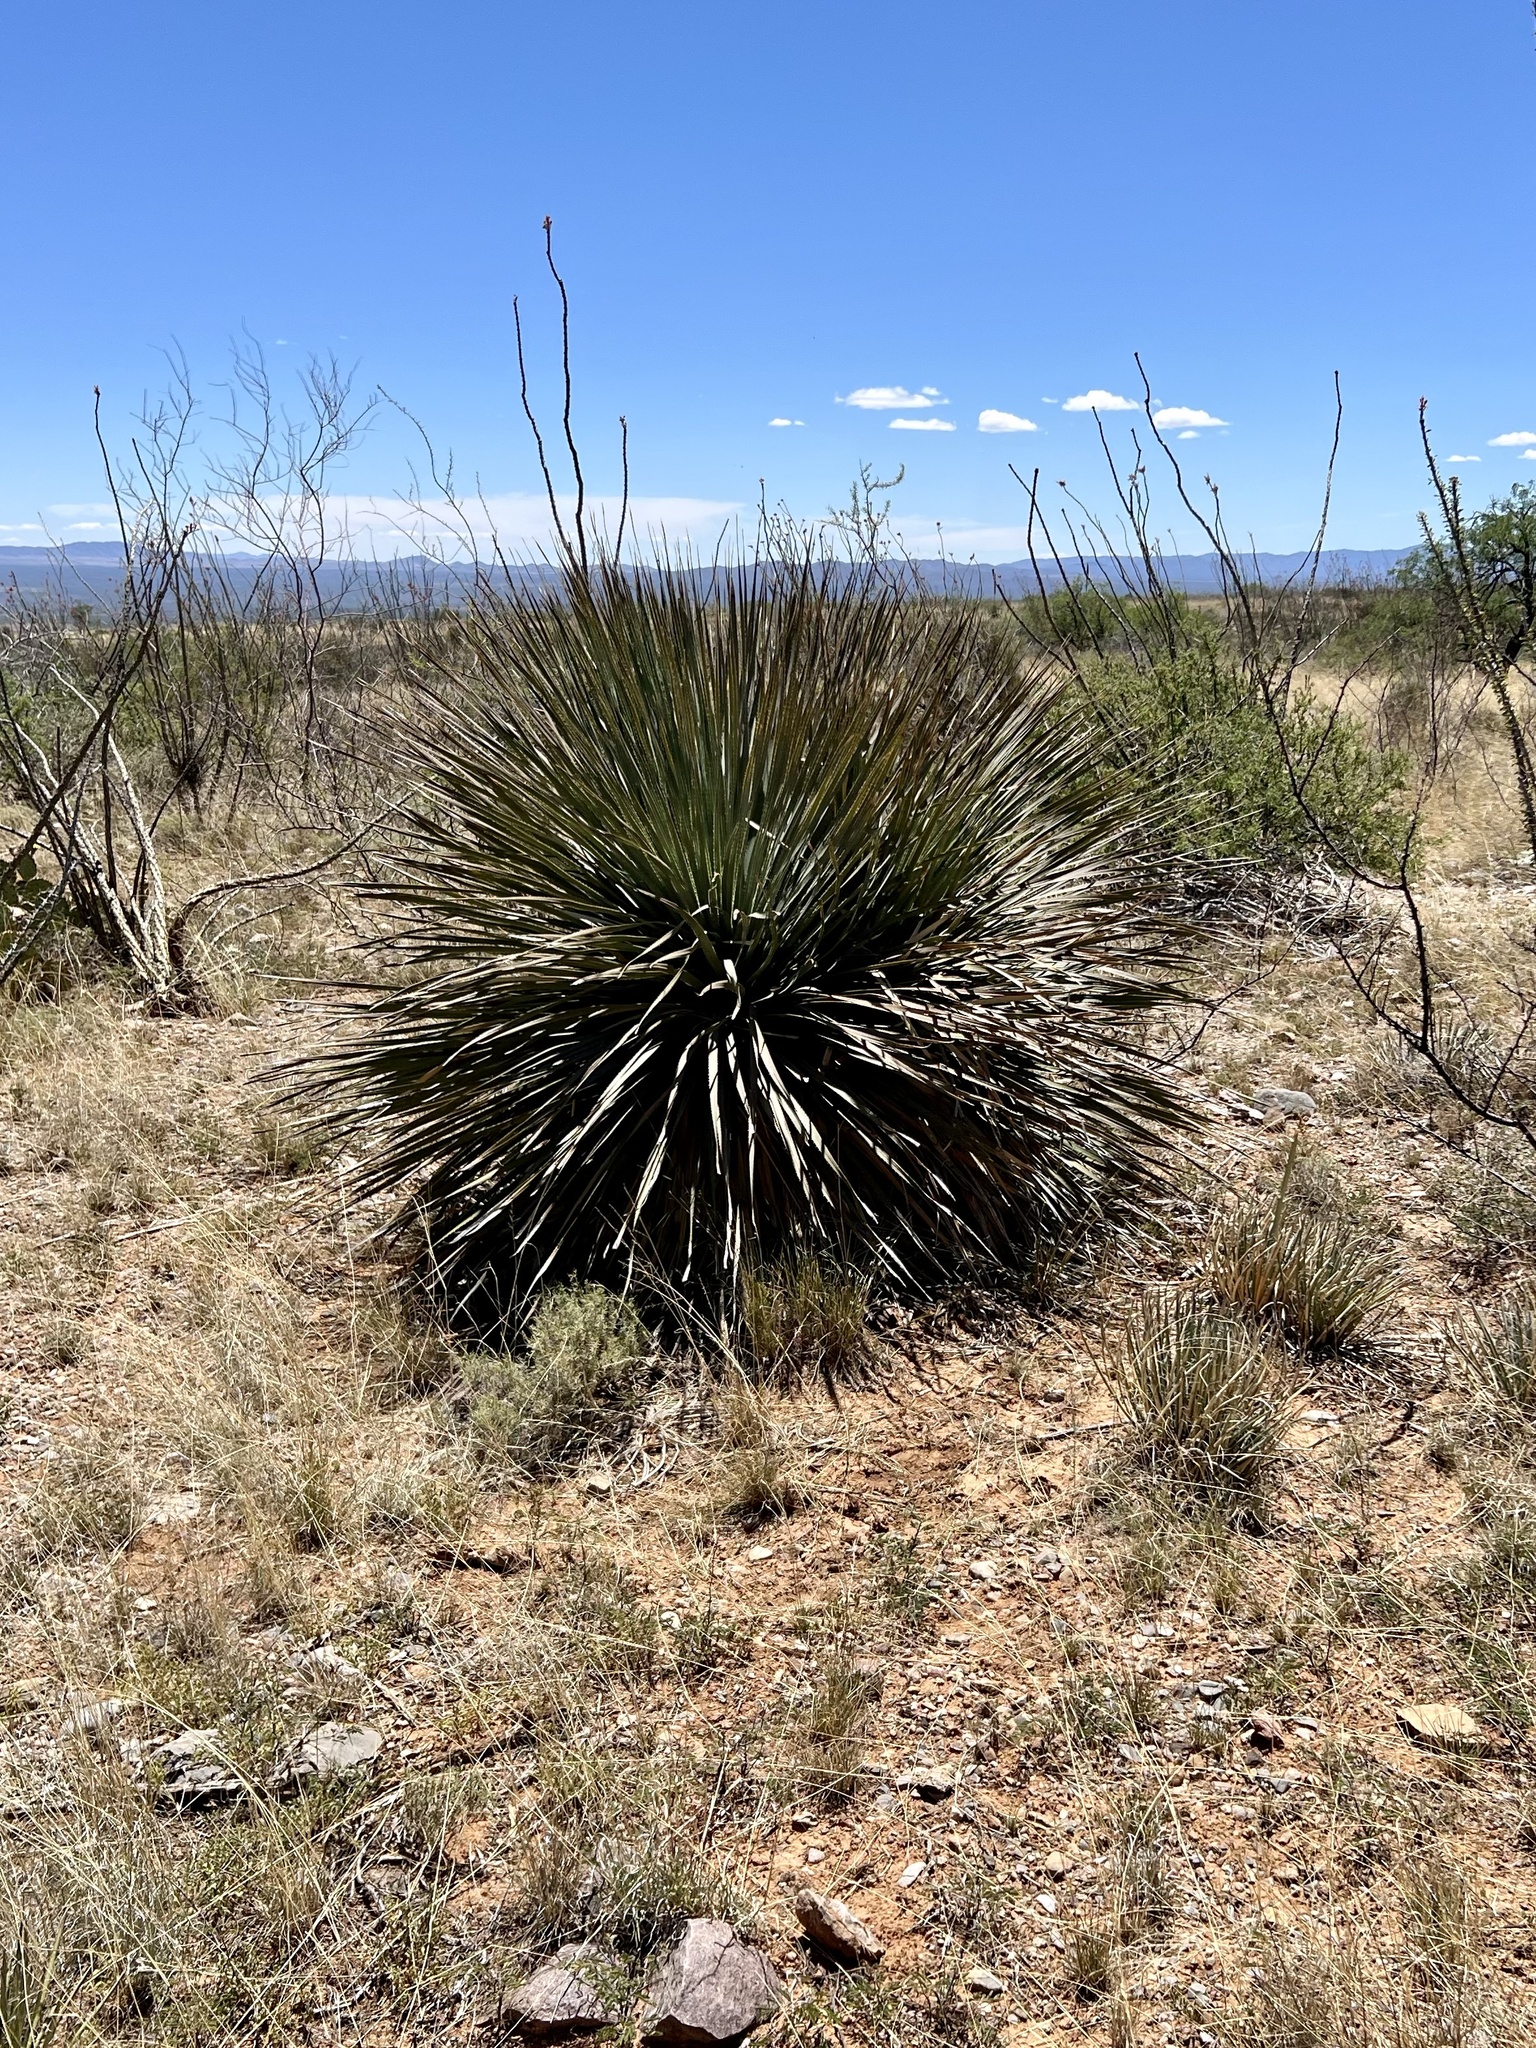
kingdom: Plantae
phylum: Tracheophyta
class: Liliopsida
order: Asparagales
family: Asparagaceae
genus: Dasylirion
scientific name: Dasylirion wheeleri
